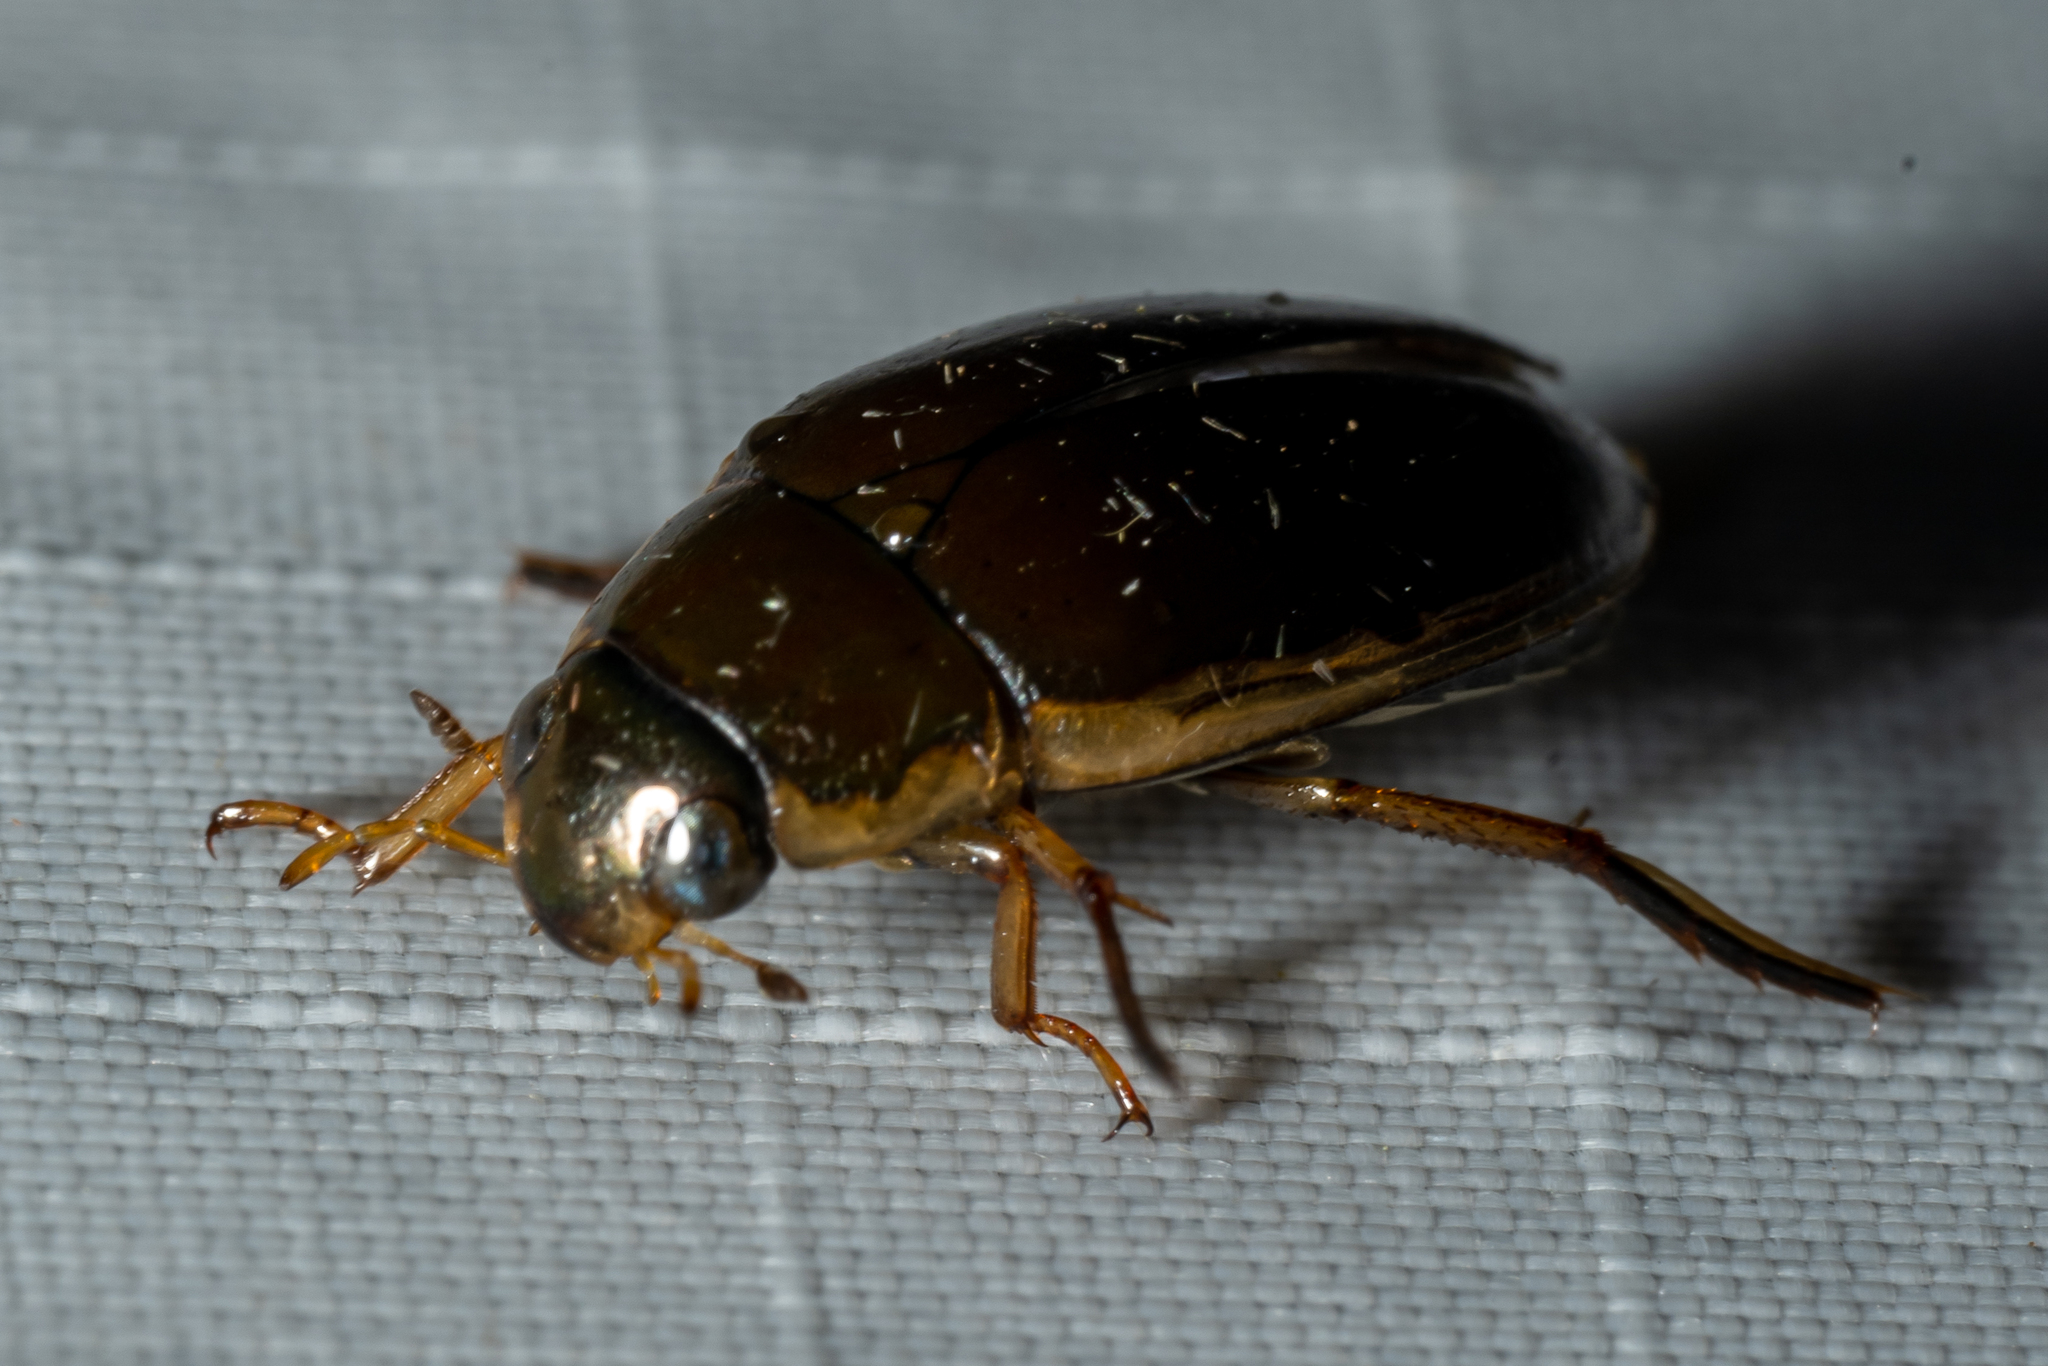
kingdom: Animalia
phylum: Arthropoda
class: Insecta
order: Coleoptera
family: Hydrophilidae
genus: Tropisternus
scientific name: Tropisternus lateralis
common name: Lateral-banded water scavenger beetle
